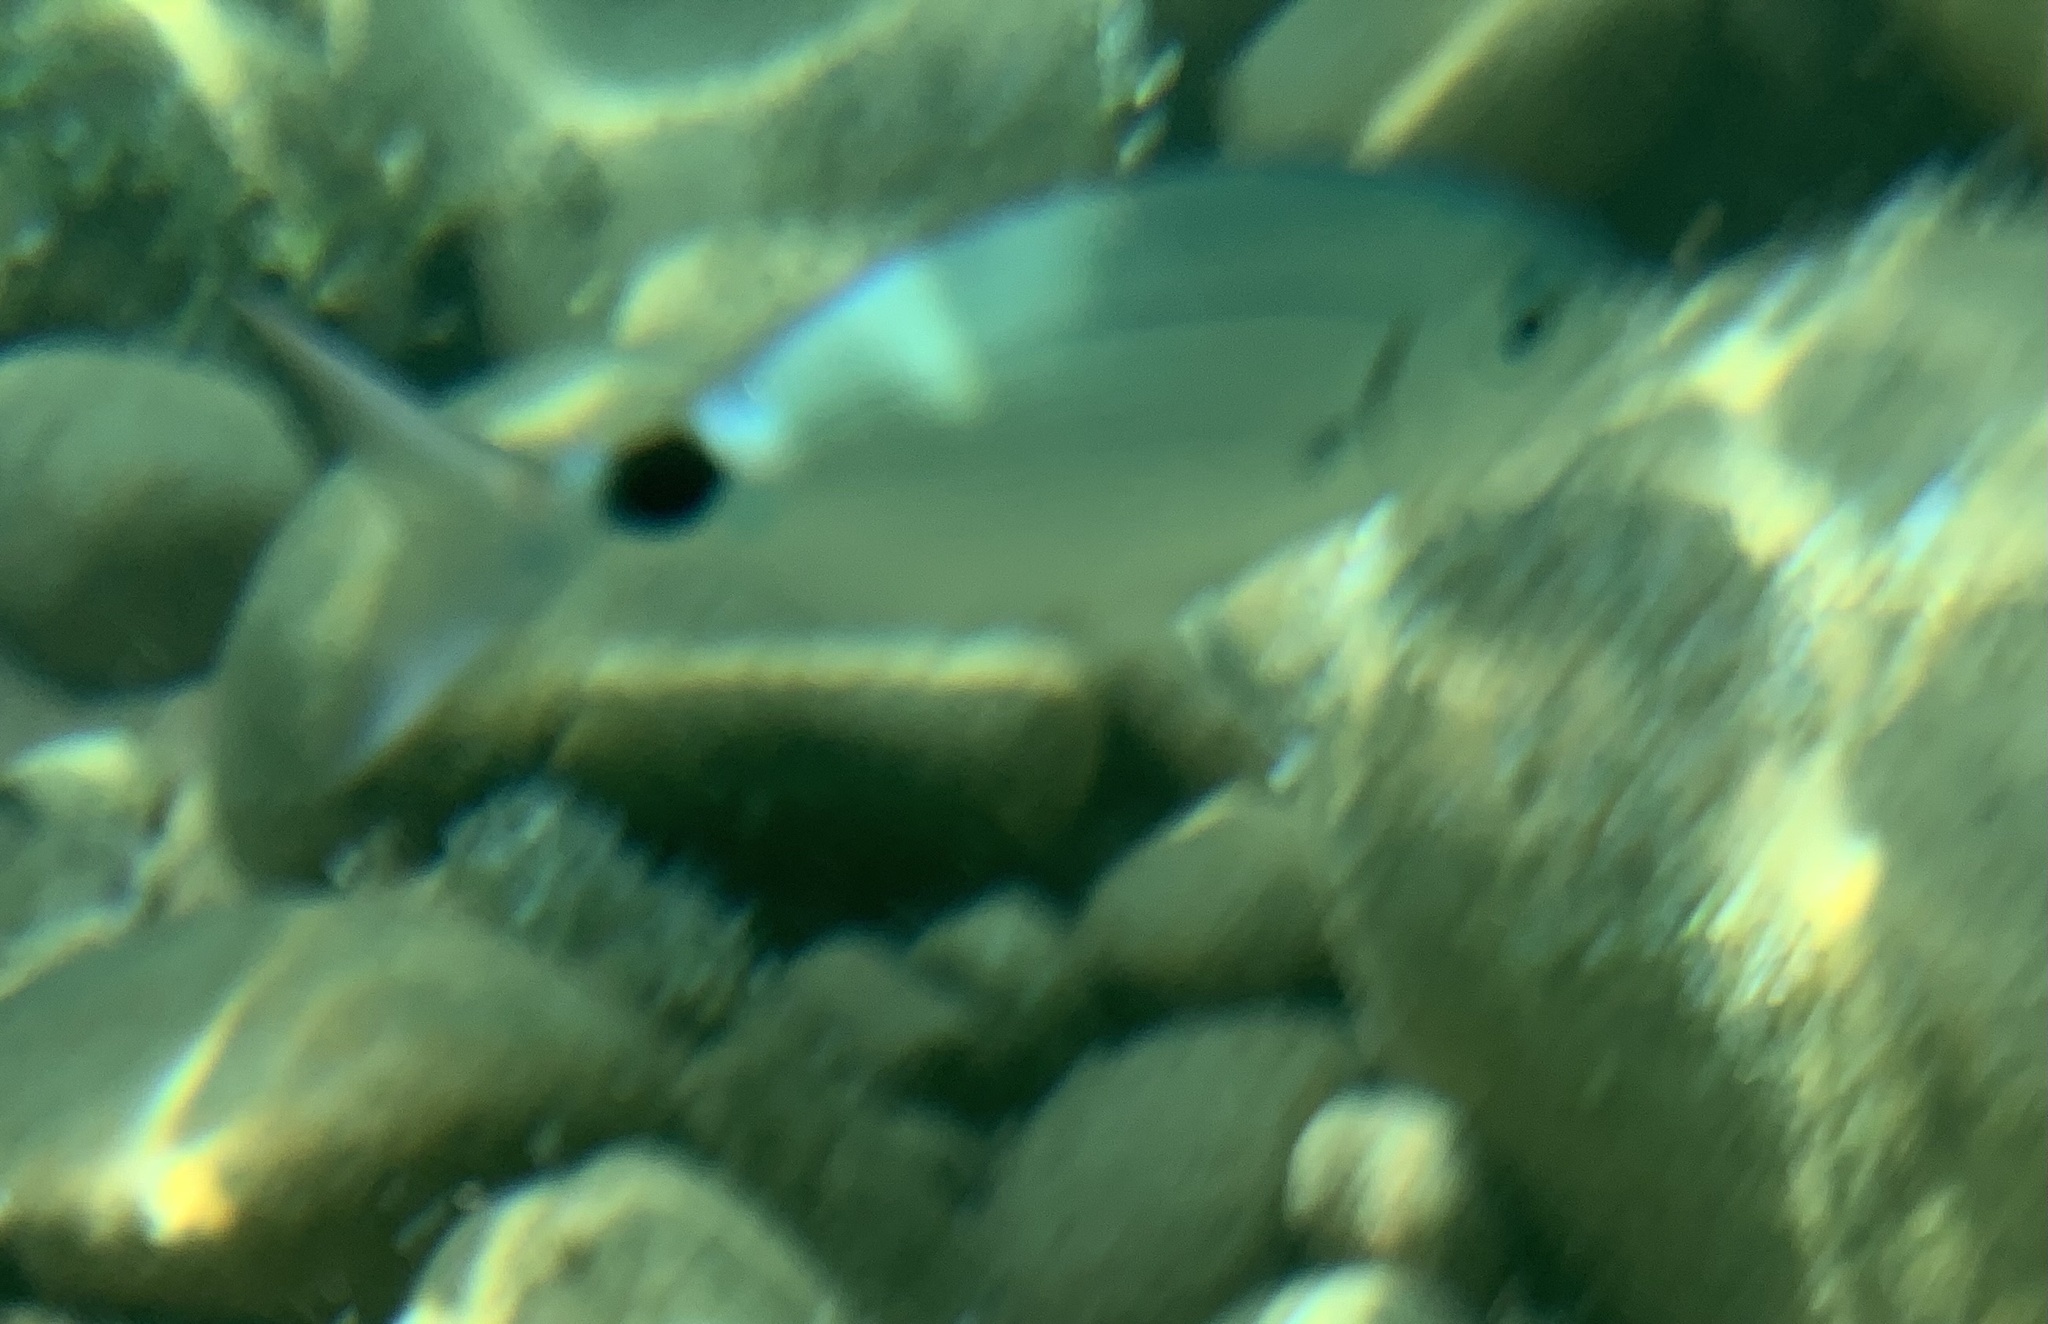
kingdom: Animalia
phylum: Chordata
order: Perciformes
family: Sparidae
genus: Oblada
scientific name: Oblada melanura
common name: Saddled seabream
